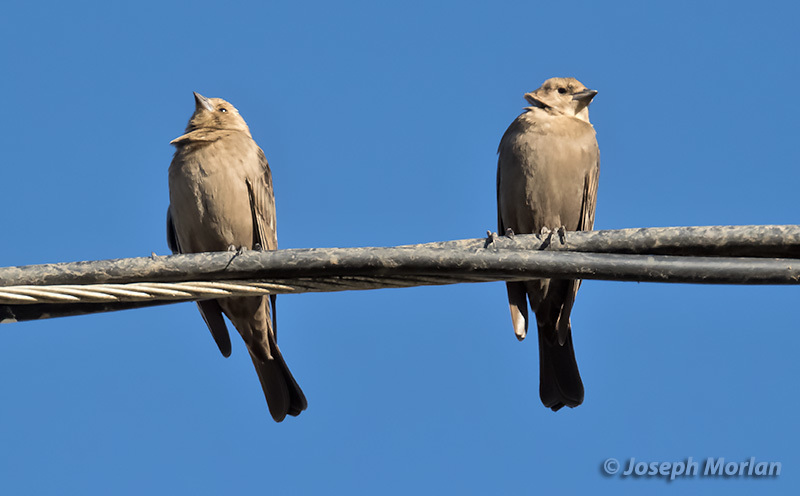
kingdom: Animalia
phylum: Chordata
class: Aves
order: Passeriformes
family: Icteridae
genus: Molothrus
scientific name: Molothrus ater
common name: Brown-headed cowbird
